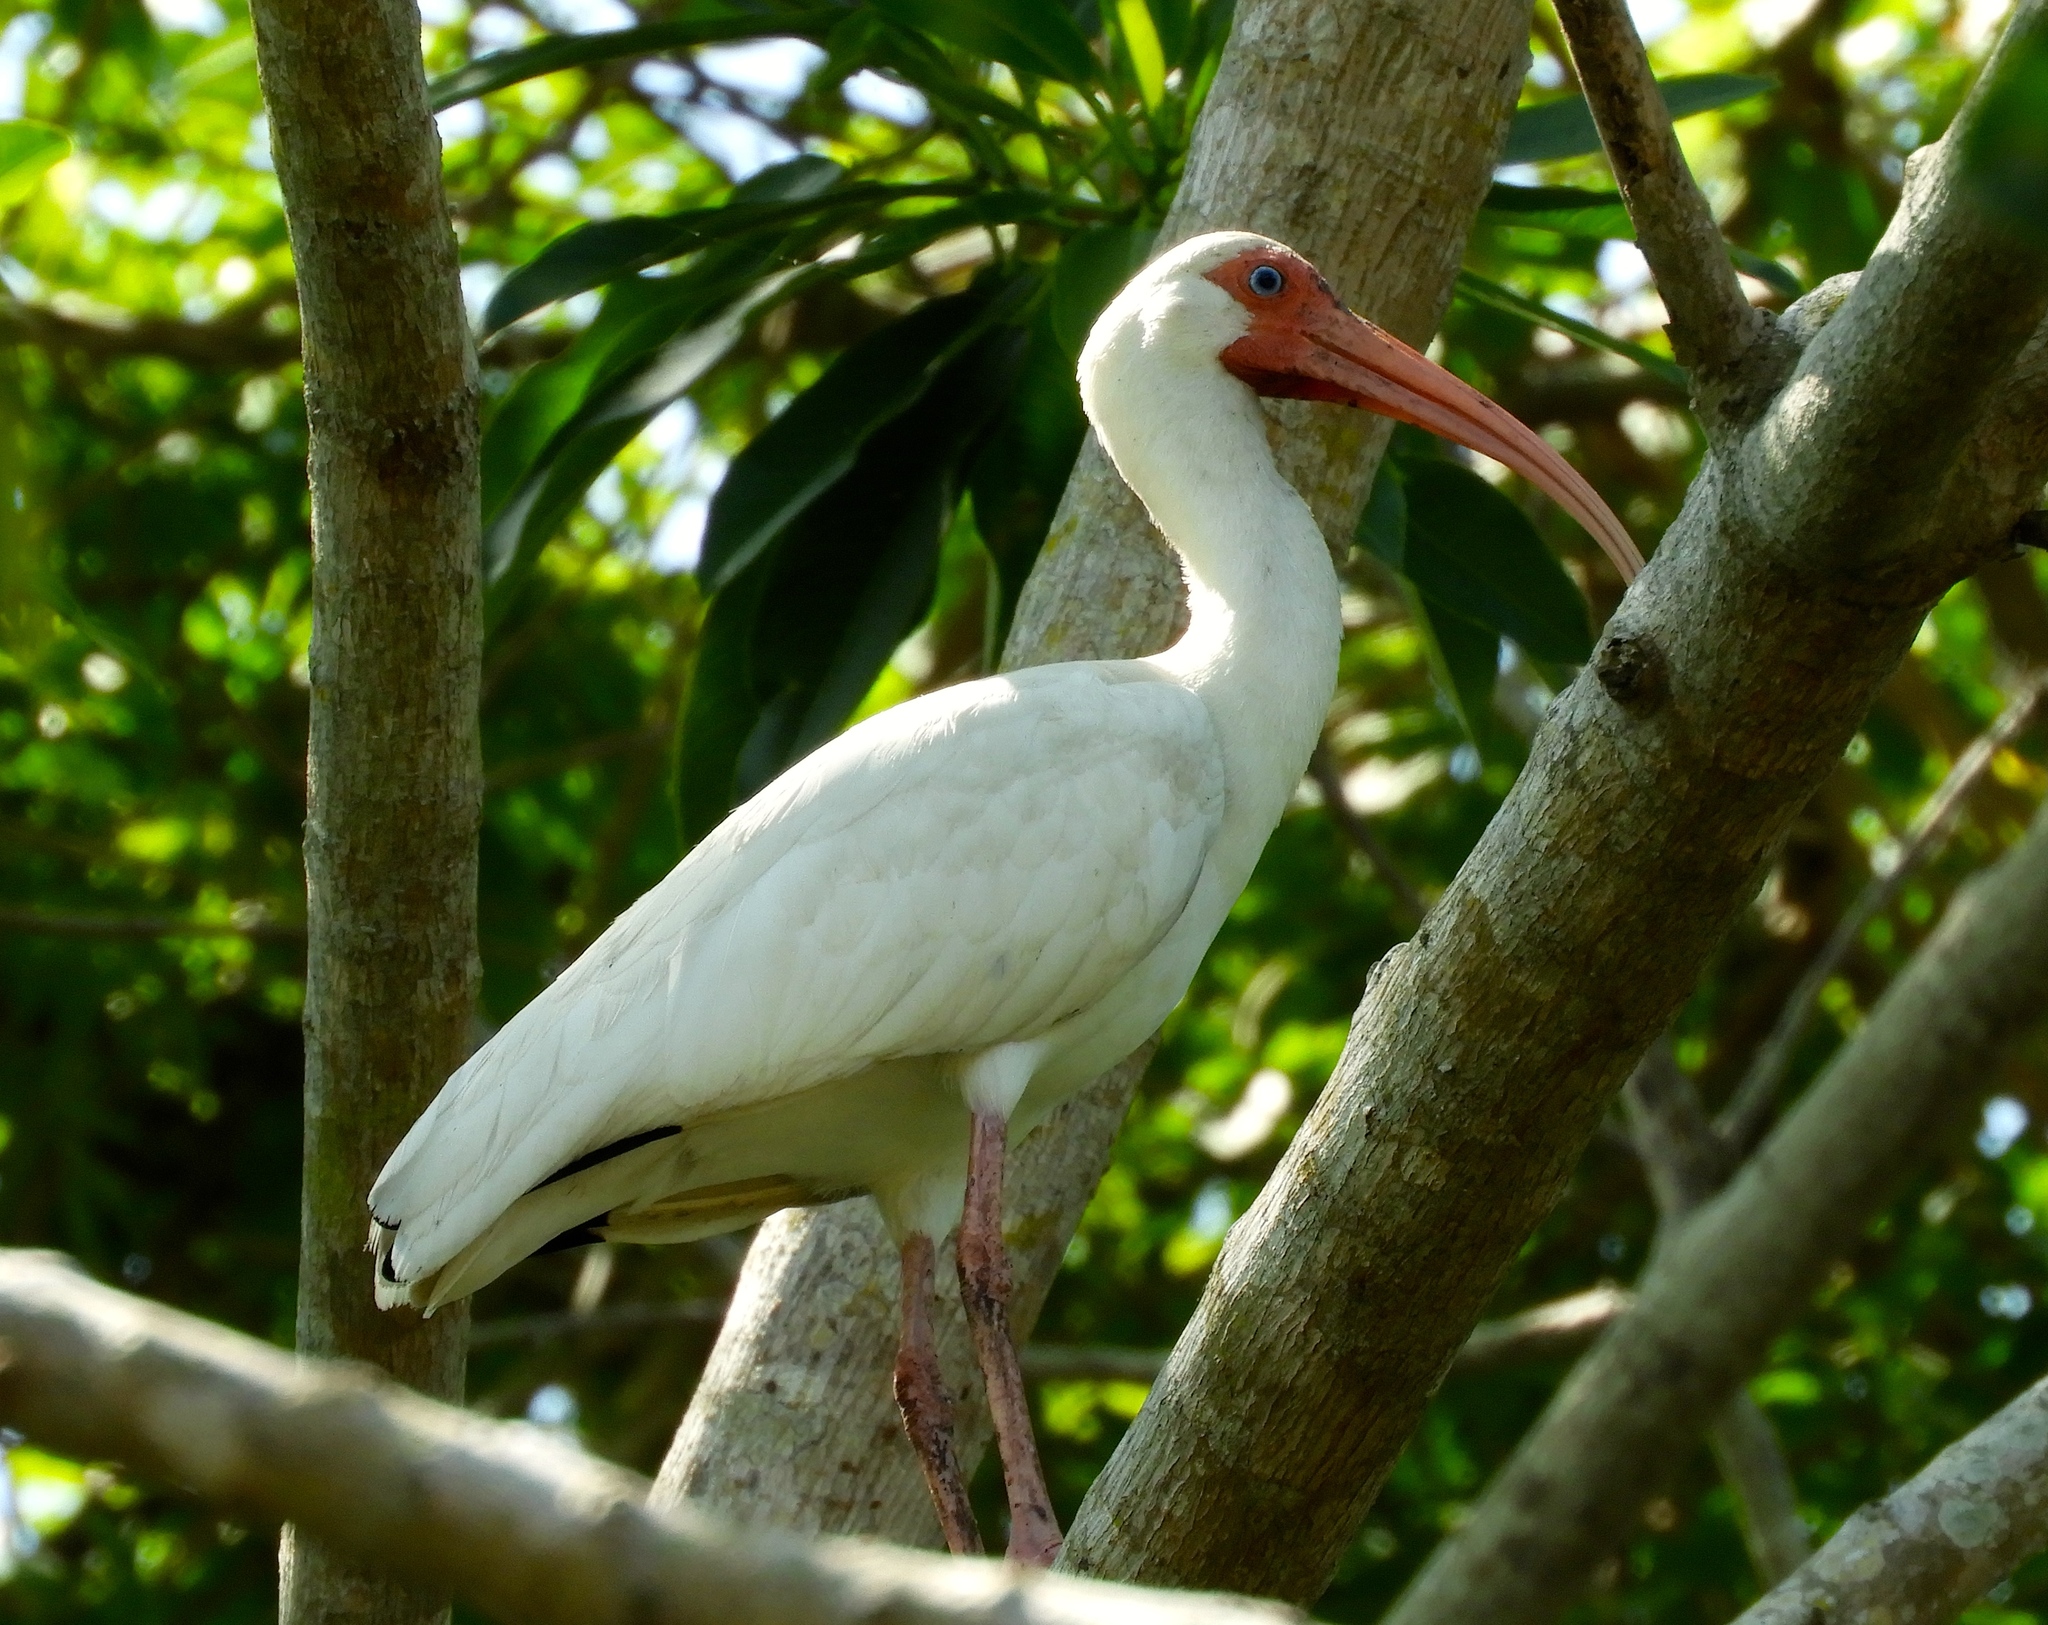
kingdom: Animalia
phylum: Chordata
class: Aves
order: Pelecaniformes
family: Threskiornithidae
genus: Eudocimus
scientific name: Eudocimus albus
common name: White ibis
